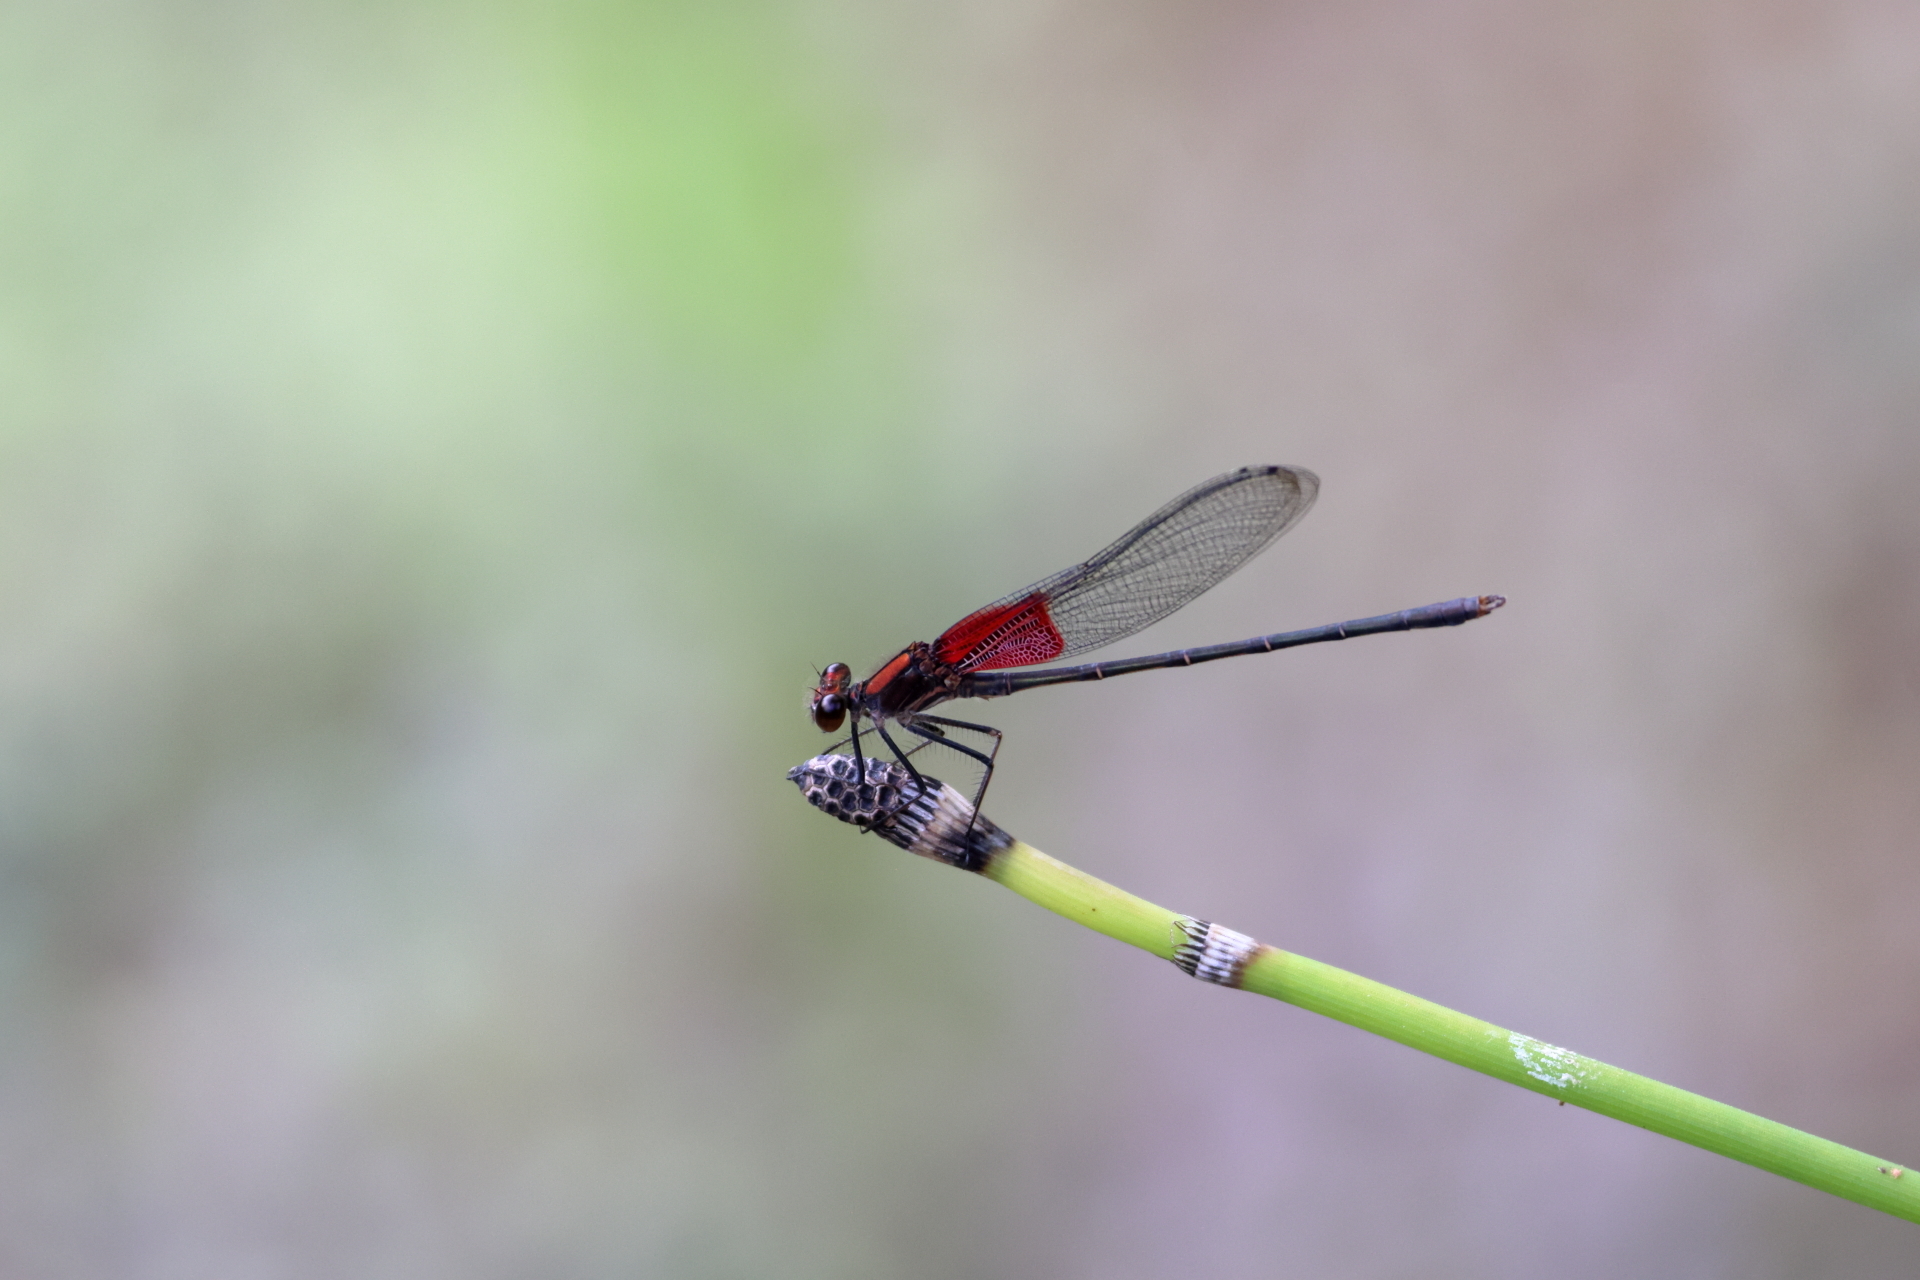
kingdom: Animalia
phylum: Arthropoda
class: Insecta
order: Odonata
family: Calopterygidae
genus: Hetaerina
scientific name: Hetaerina americana
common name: American rubyspot
